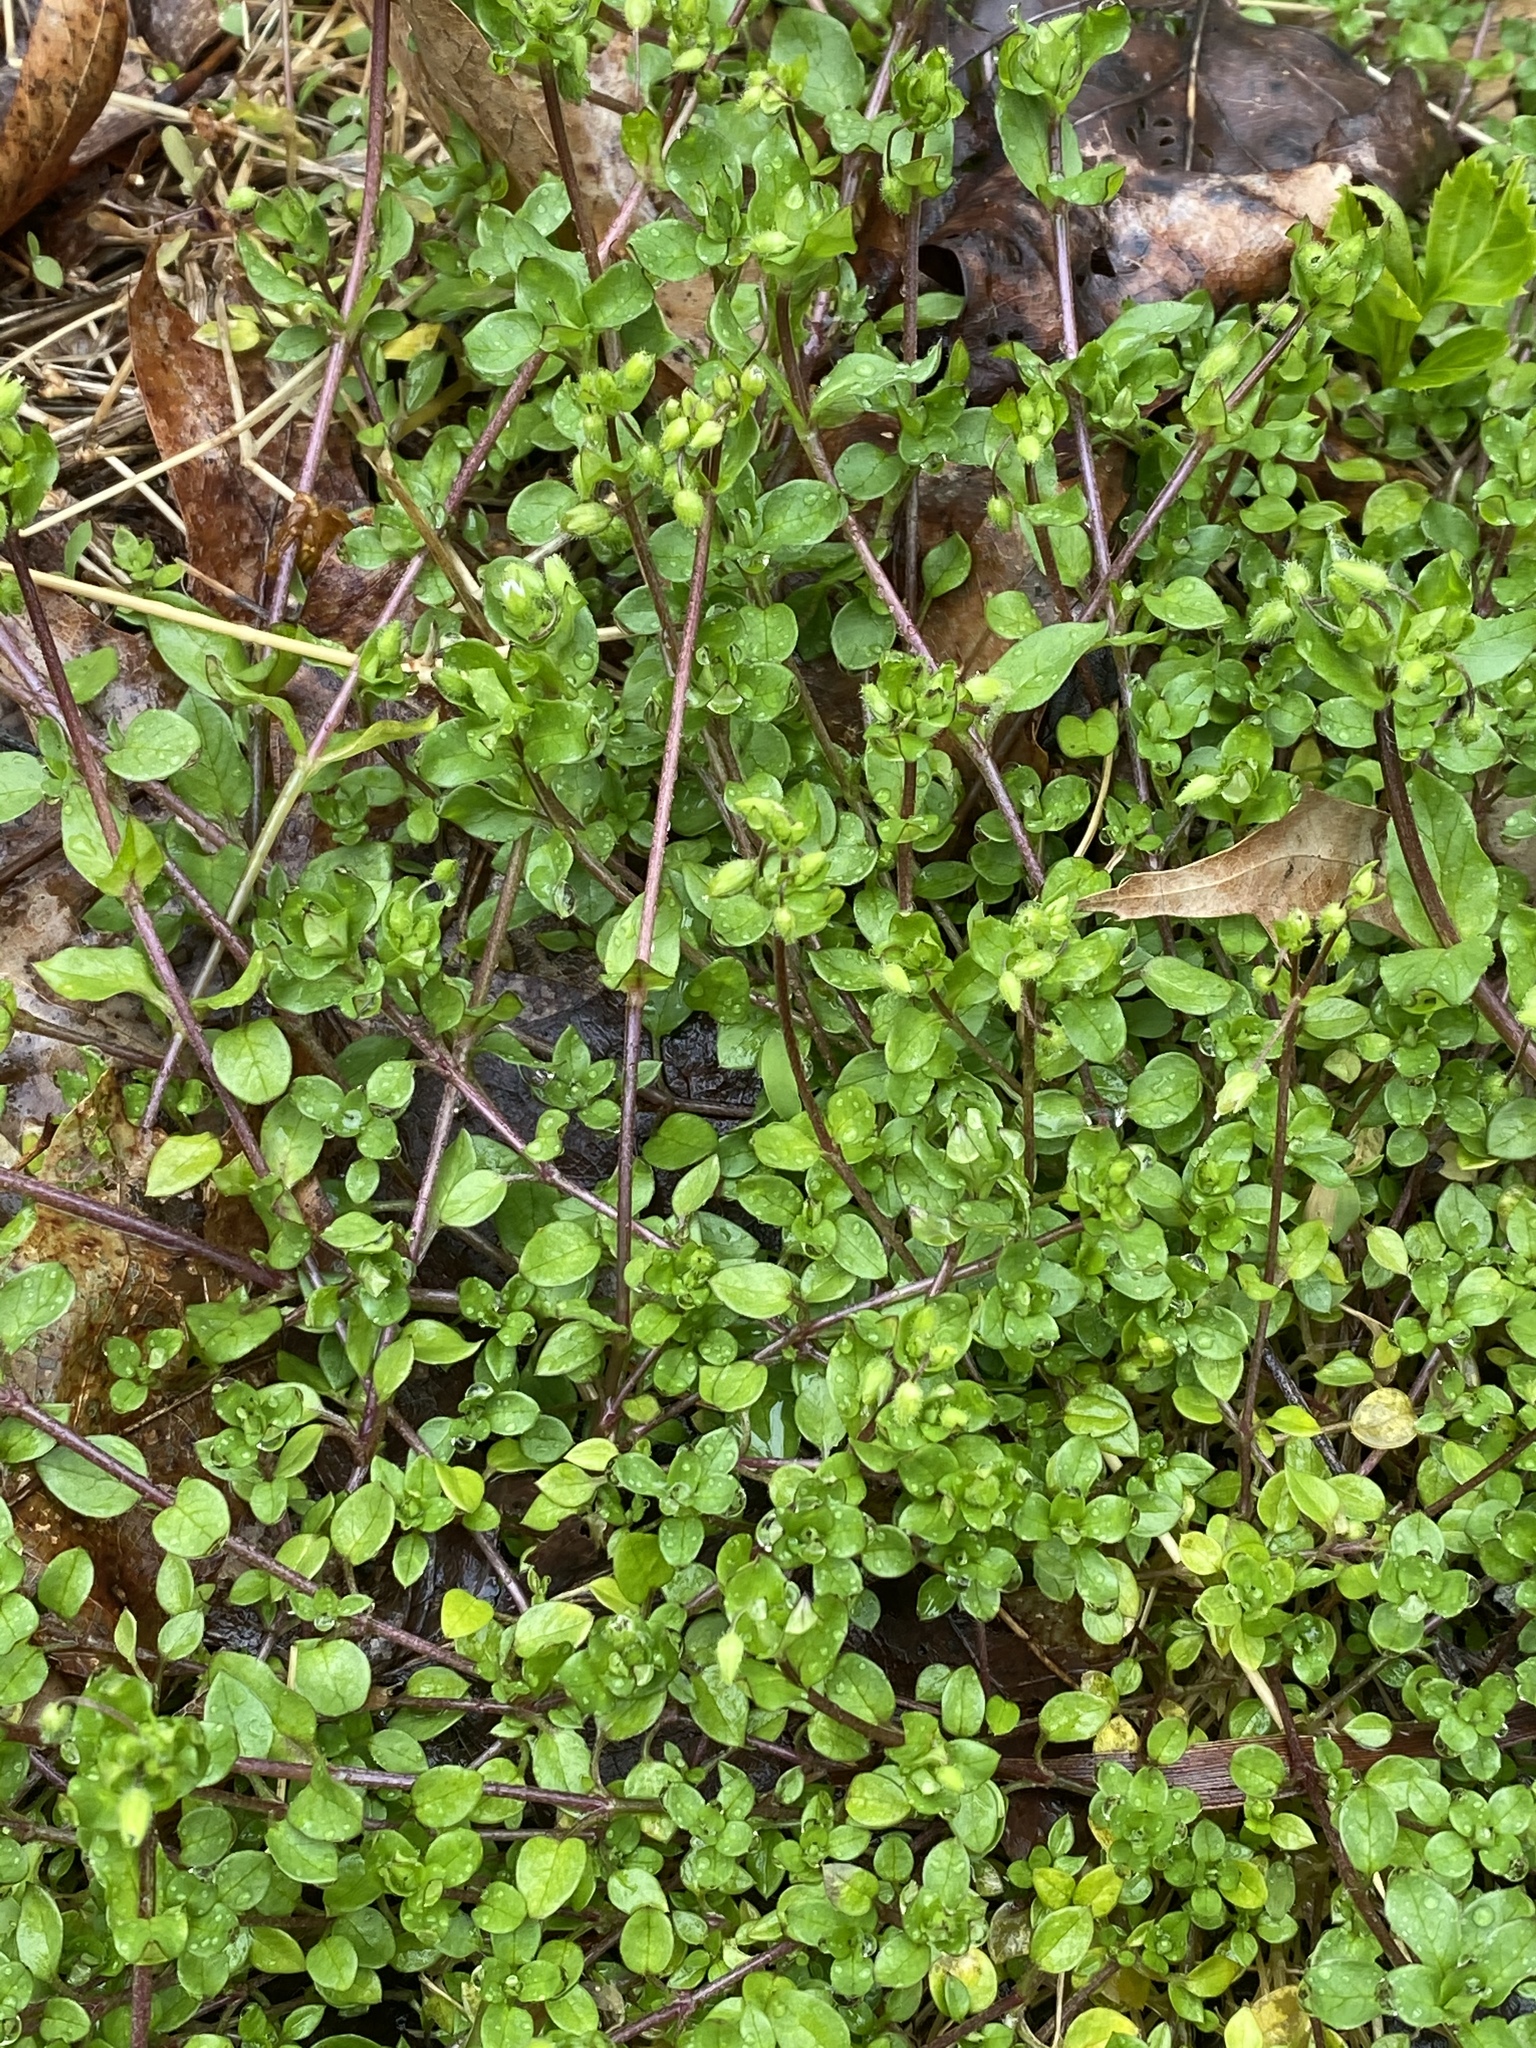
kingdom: Plantae
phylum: Tracheophyta
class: Magnoliopsida
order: Caryophyllales
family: Caryophyllaceae
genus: Stellaria
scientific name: Stellaria media
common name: Common chickweed
